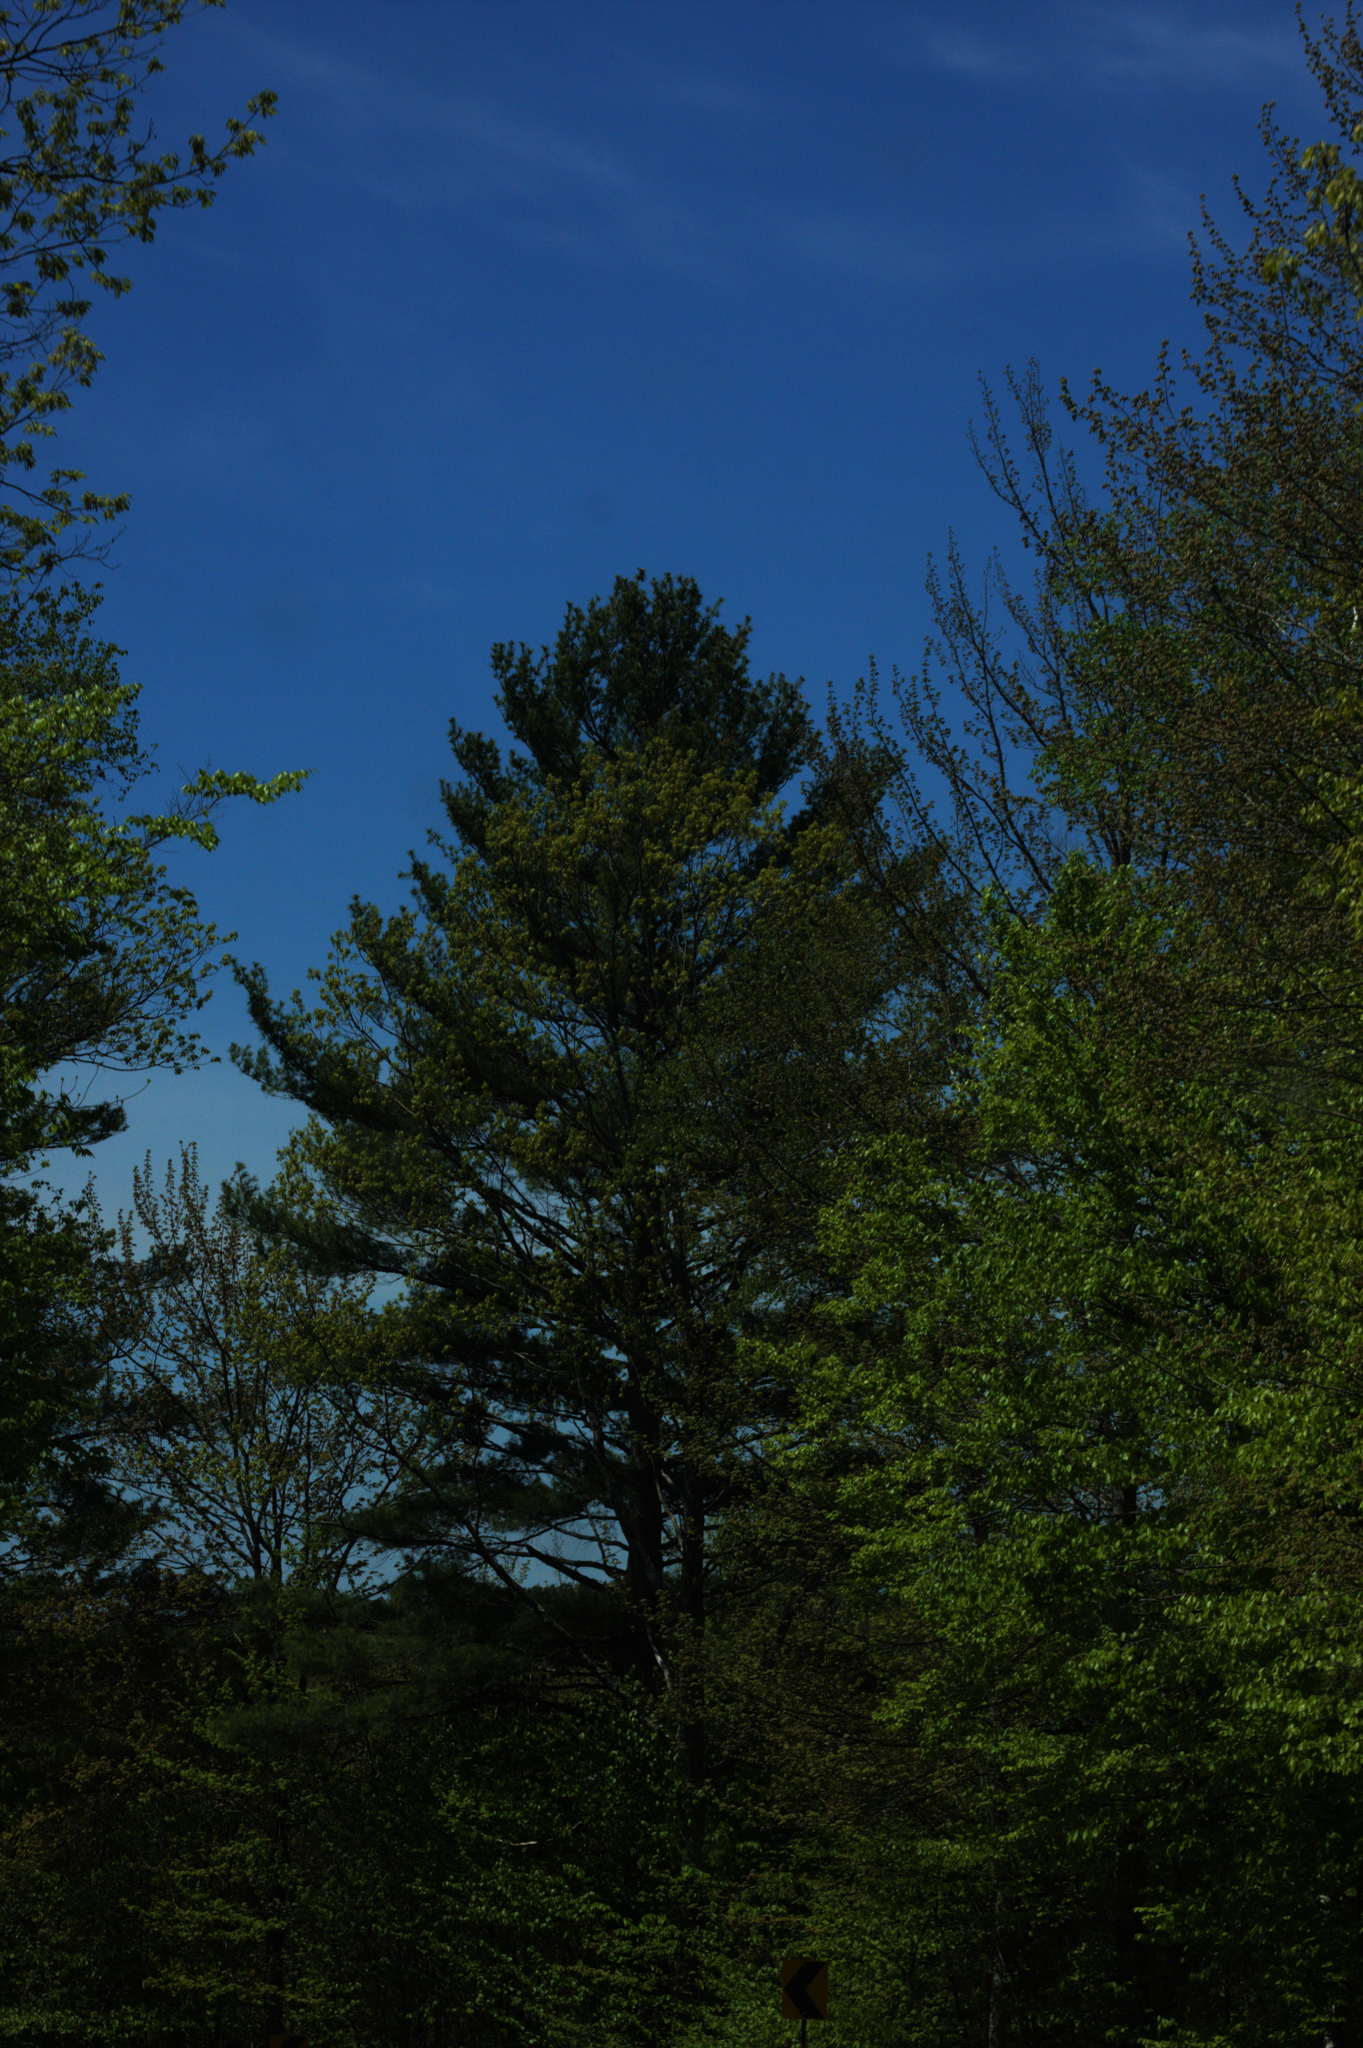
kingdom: Plantae
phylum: Tracheophyta
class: Pinopsida
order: Pinales
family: Pinaceae
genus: Pinus
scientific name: Pinus strobus
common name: Weymouth pine
